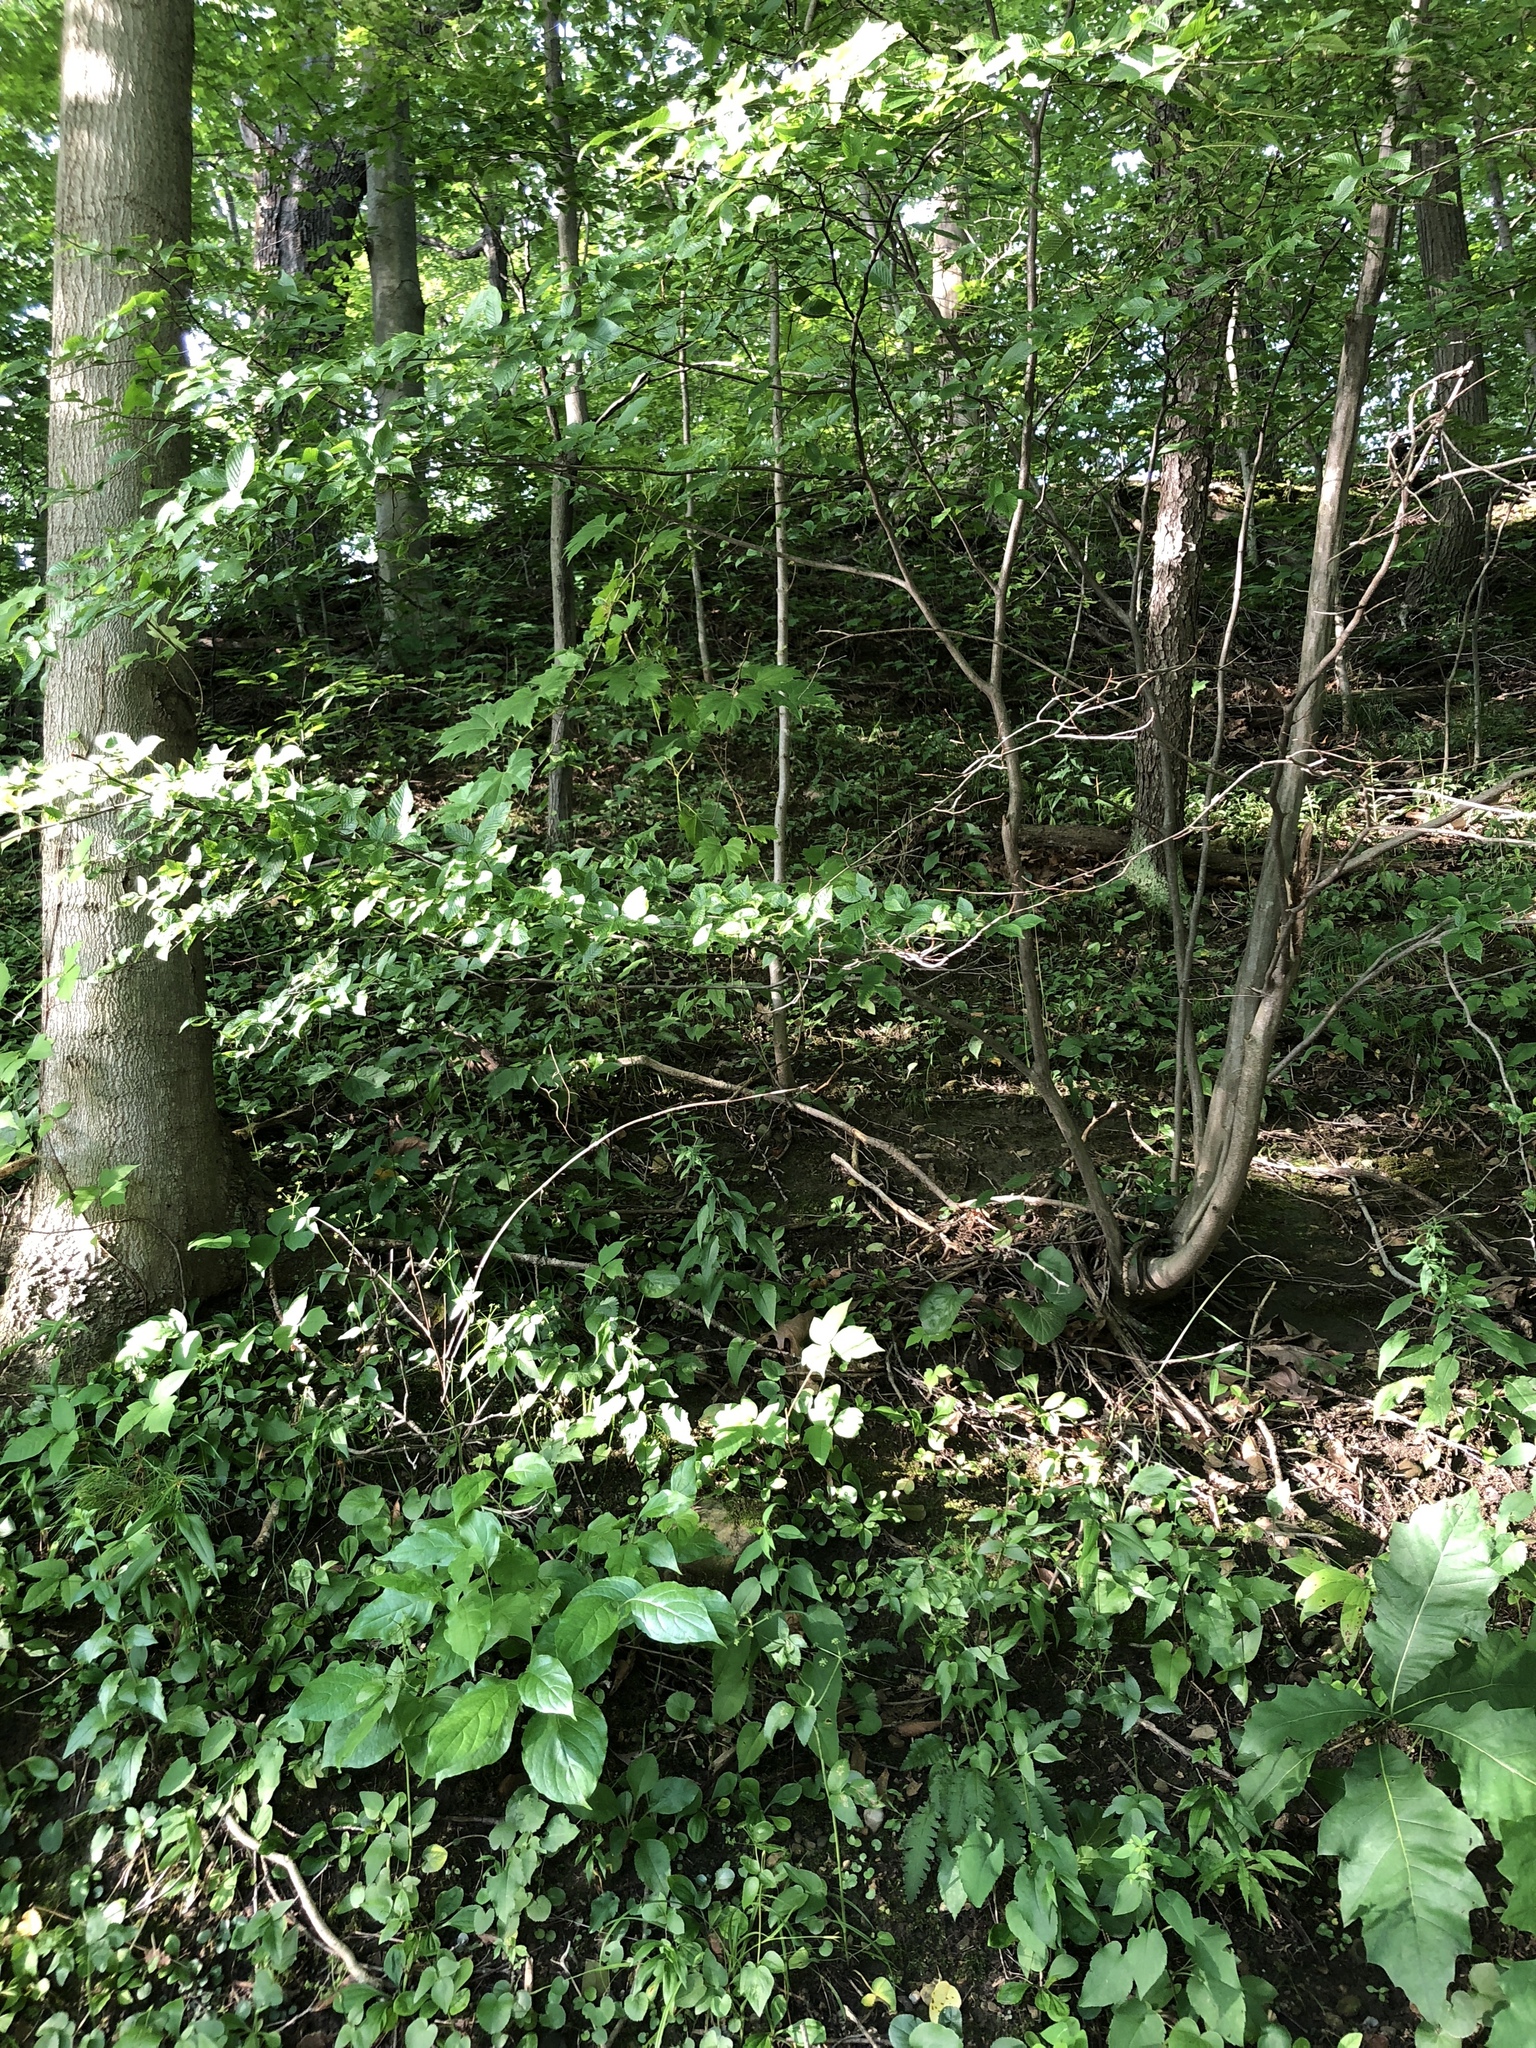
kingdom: Plantae
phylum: Tracheophyta
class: Magnoliopsida
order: Fagales
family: Betulaceae
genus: Carpinus
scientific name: Carpinus caroliniana
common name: American hornbeam
